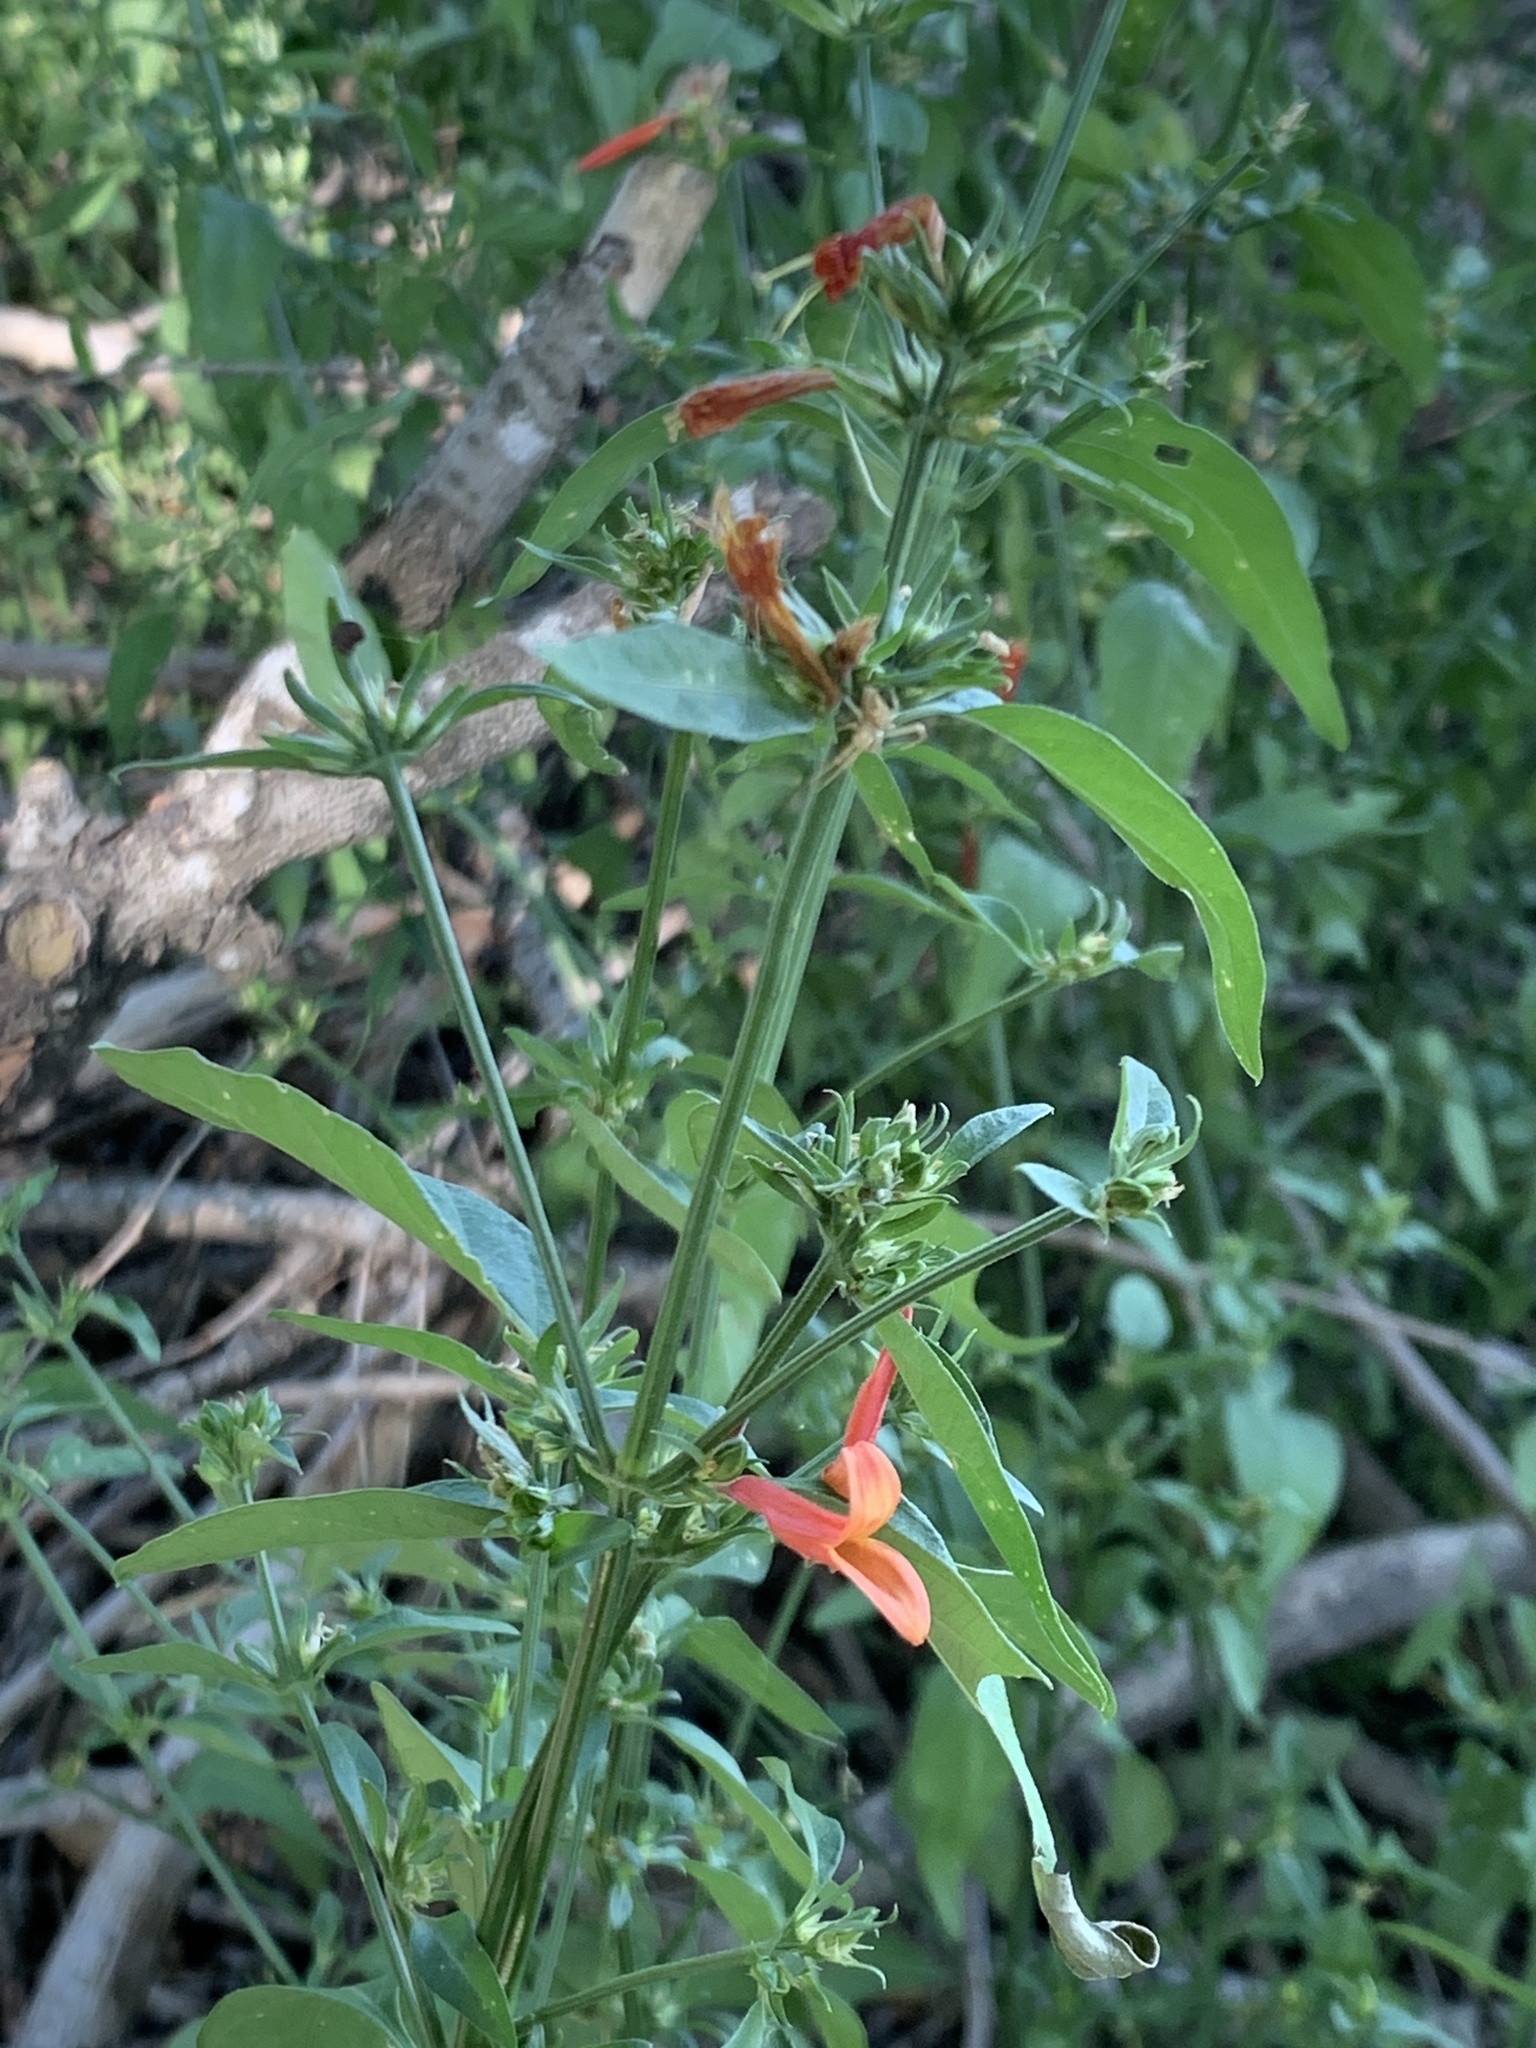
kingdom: Plantae
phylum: Tracheophyta
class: Magnoliopsida
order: Lamiales
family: Acanthaceae
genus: Dicliptera
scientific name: Dicliptera squarrosa
